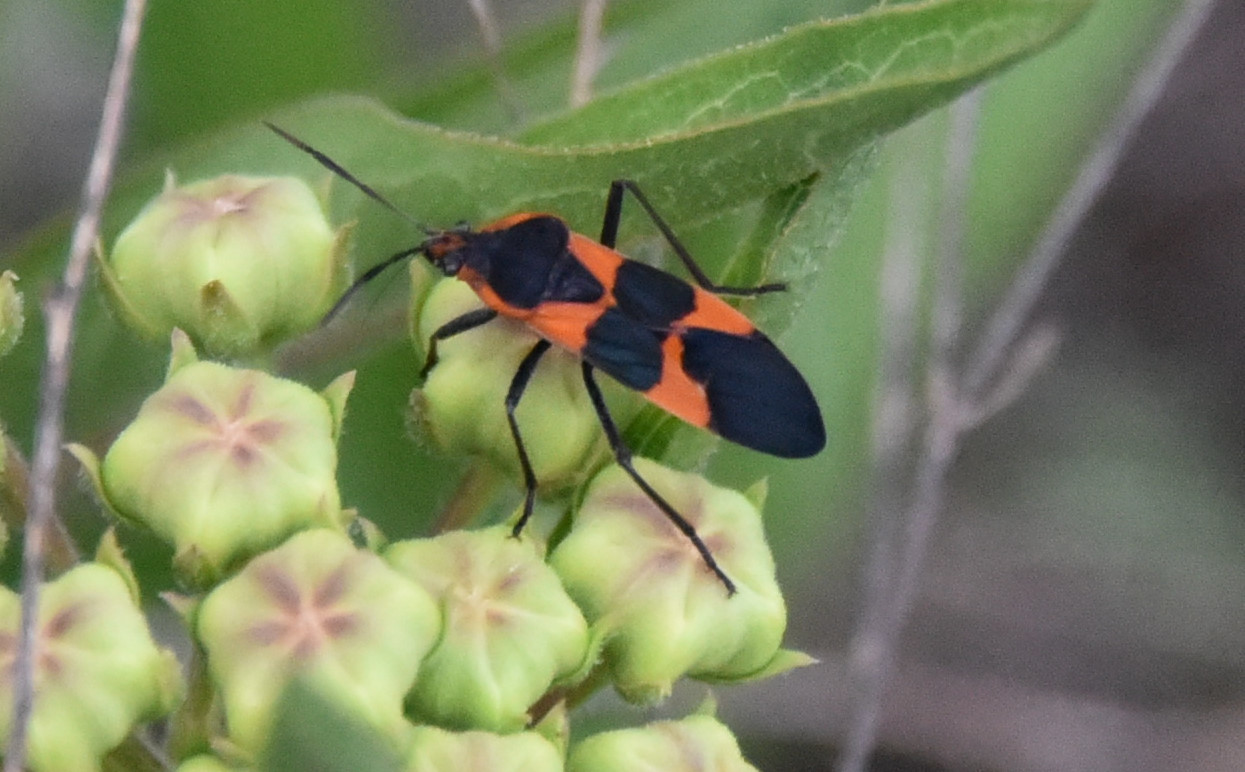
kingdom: Animalia
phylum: Arthropoda
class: Insecta
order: Hemiptera
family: Lygaeidae
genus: Oncopeltus
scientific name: Oncopeltus fasciatus
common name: Large milkweed bug
